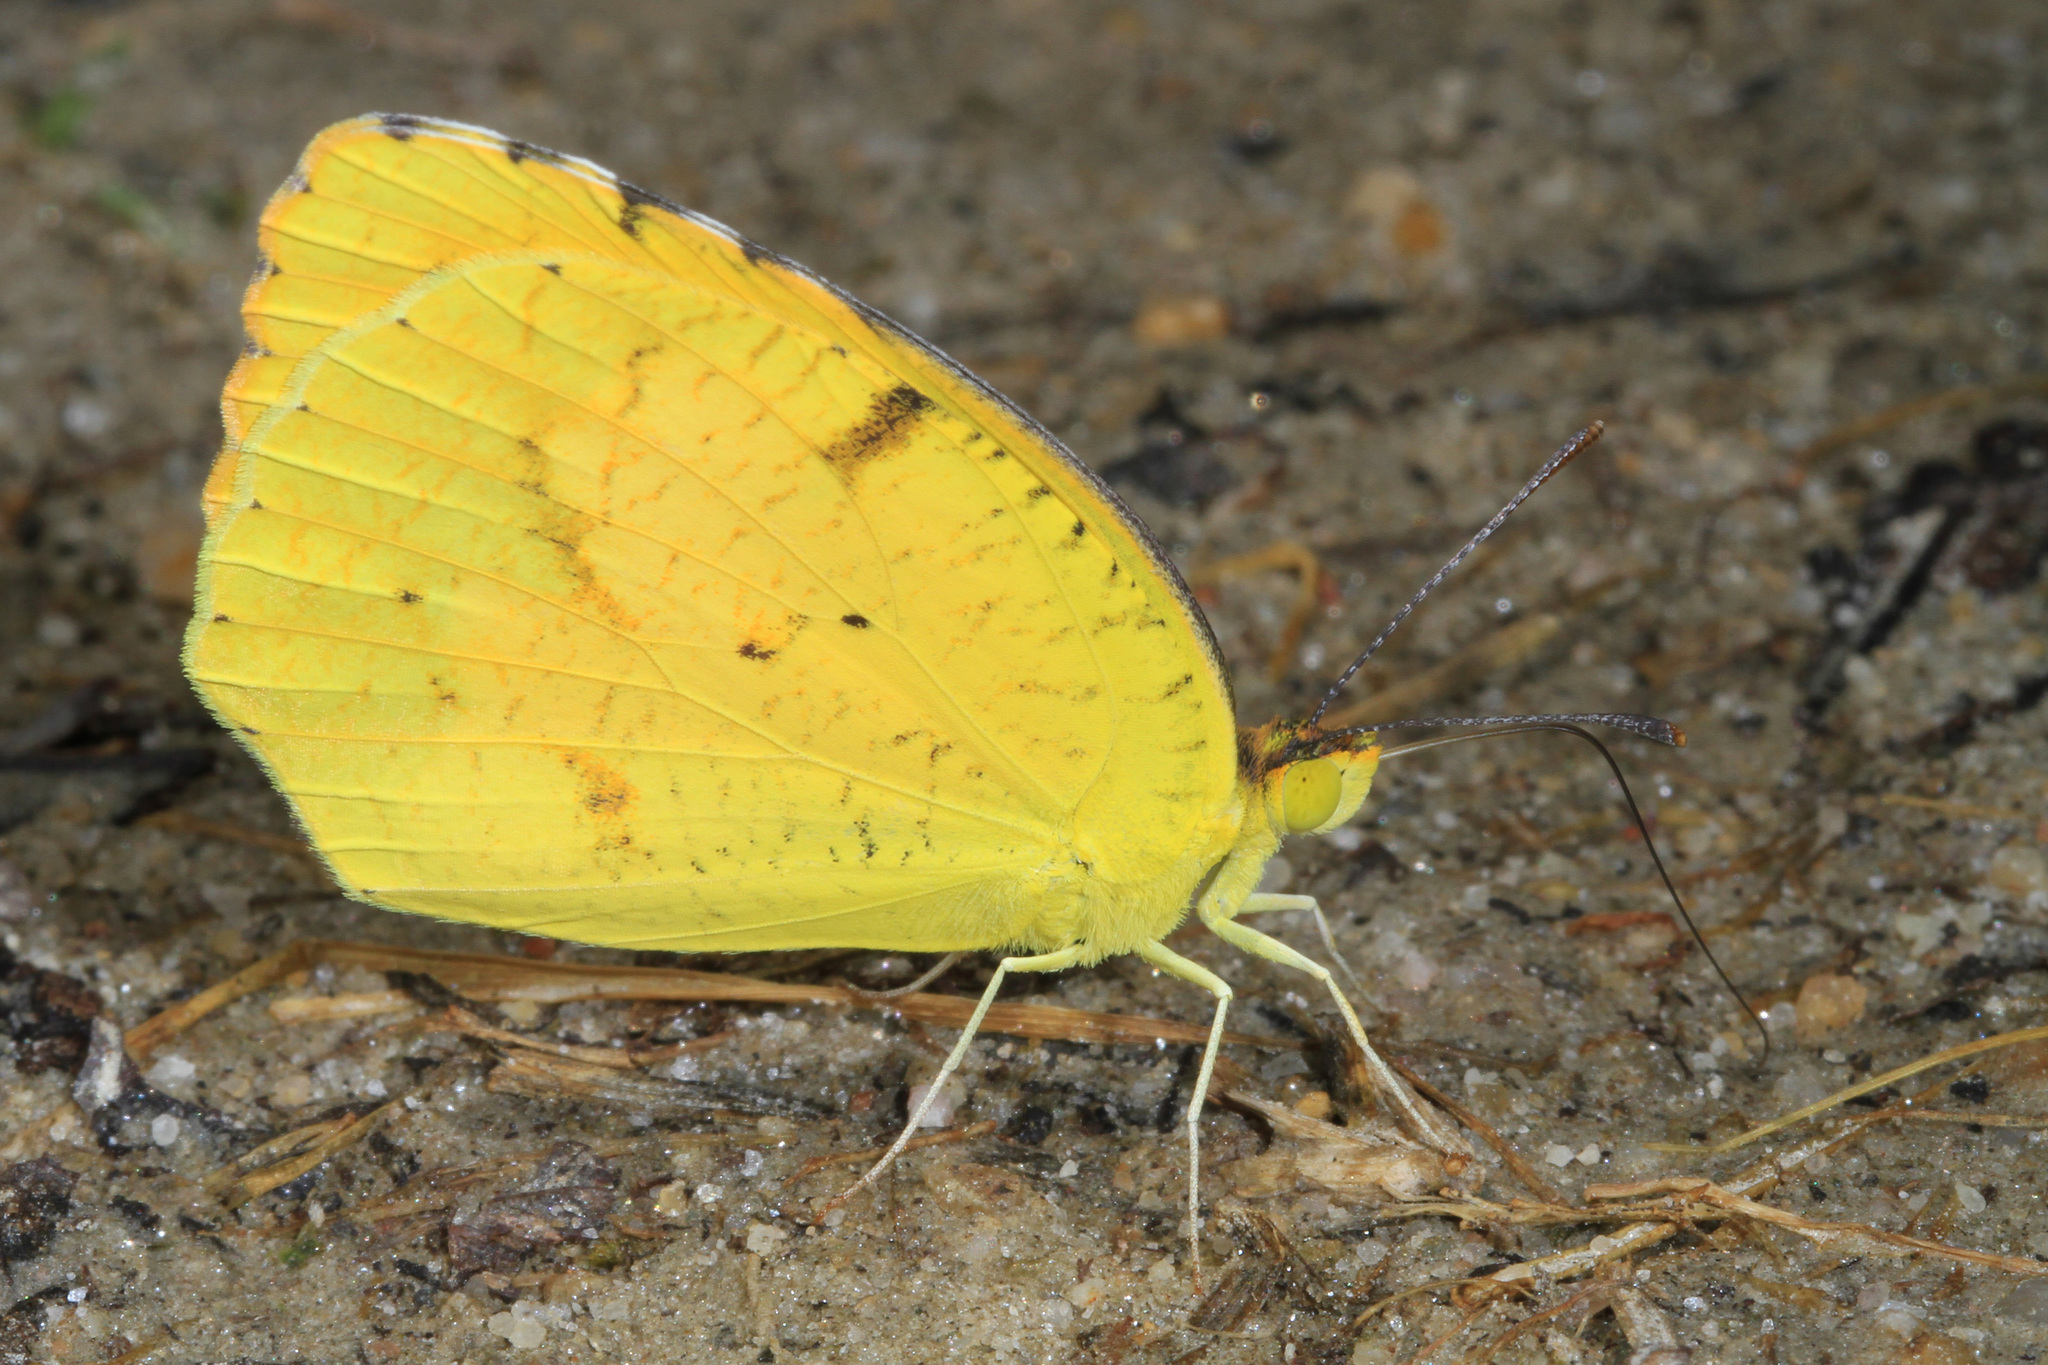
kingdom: Animalia
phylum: Arthropoda
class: Insecta
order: Lepidoptera
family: Pieridae
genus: Abaeis
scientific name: Abaeis nicippe
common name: Sleepy orange
